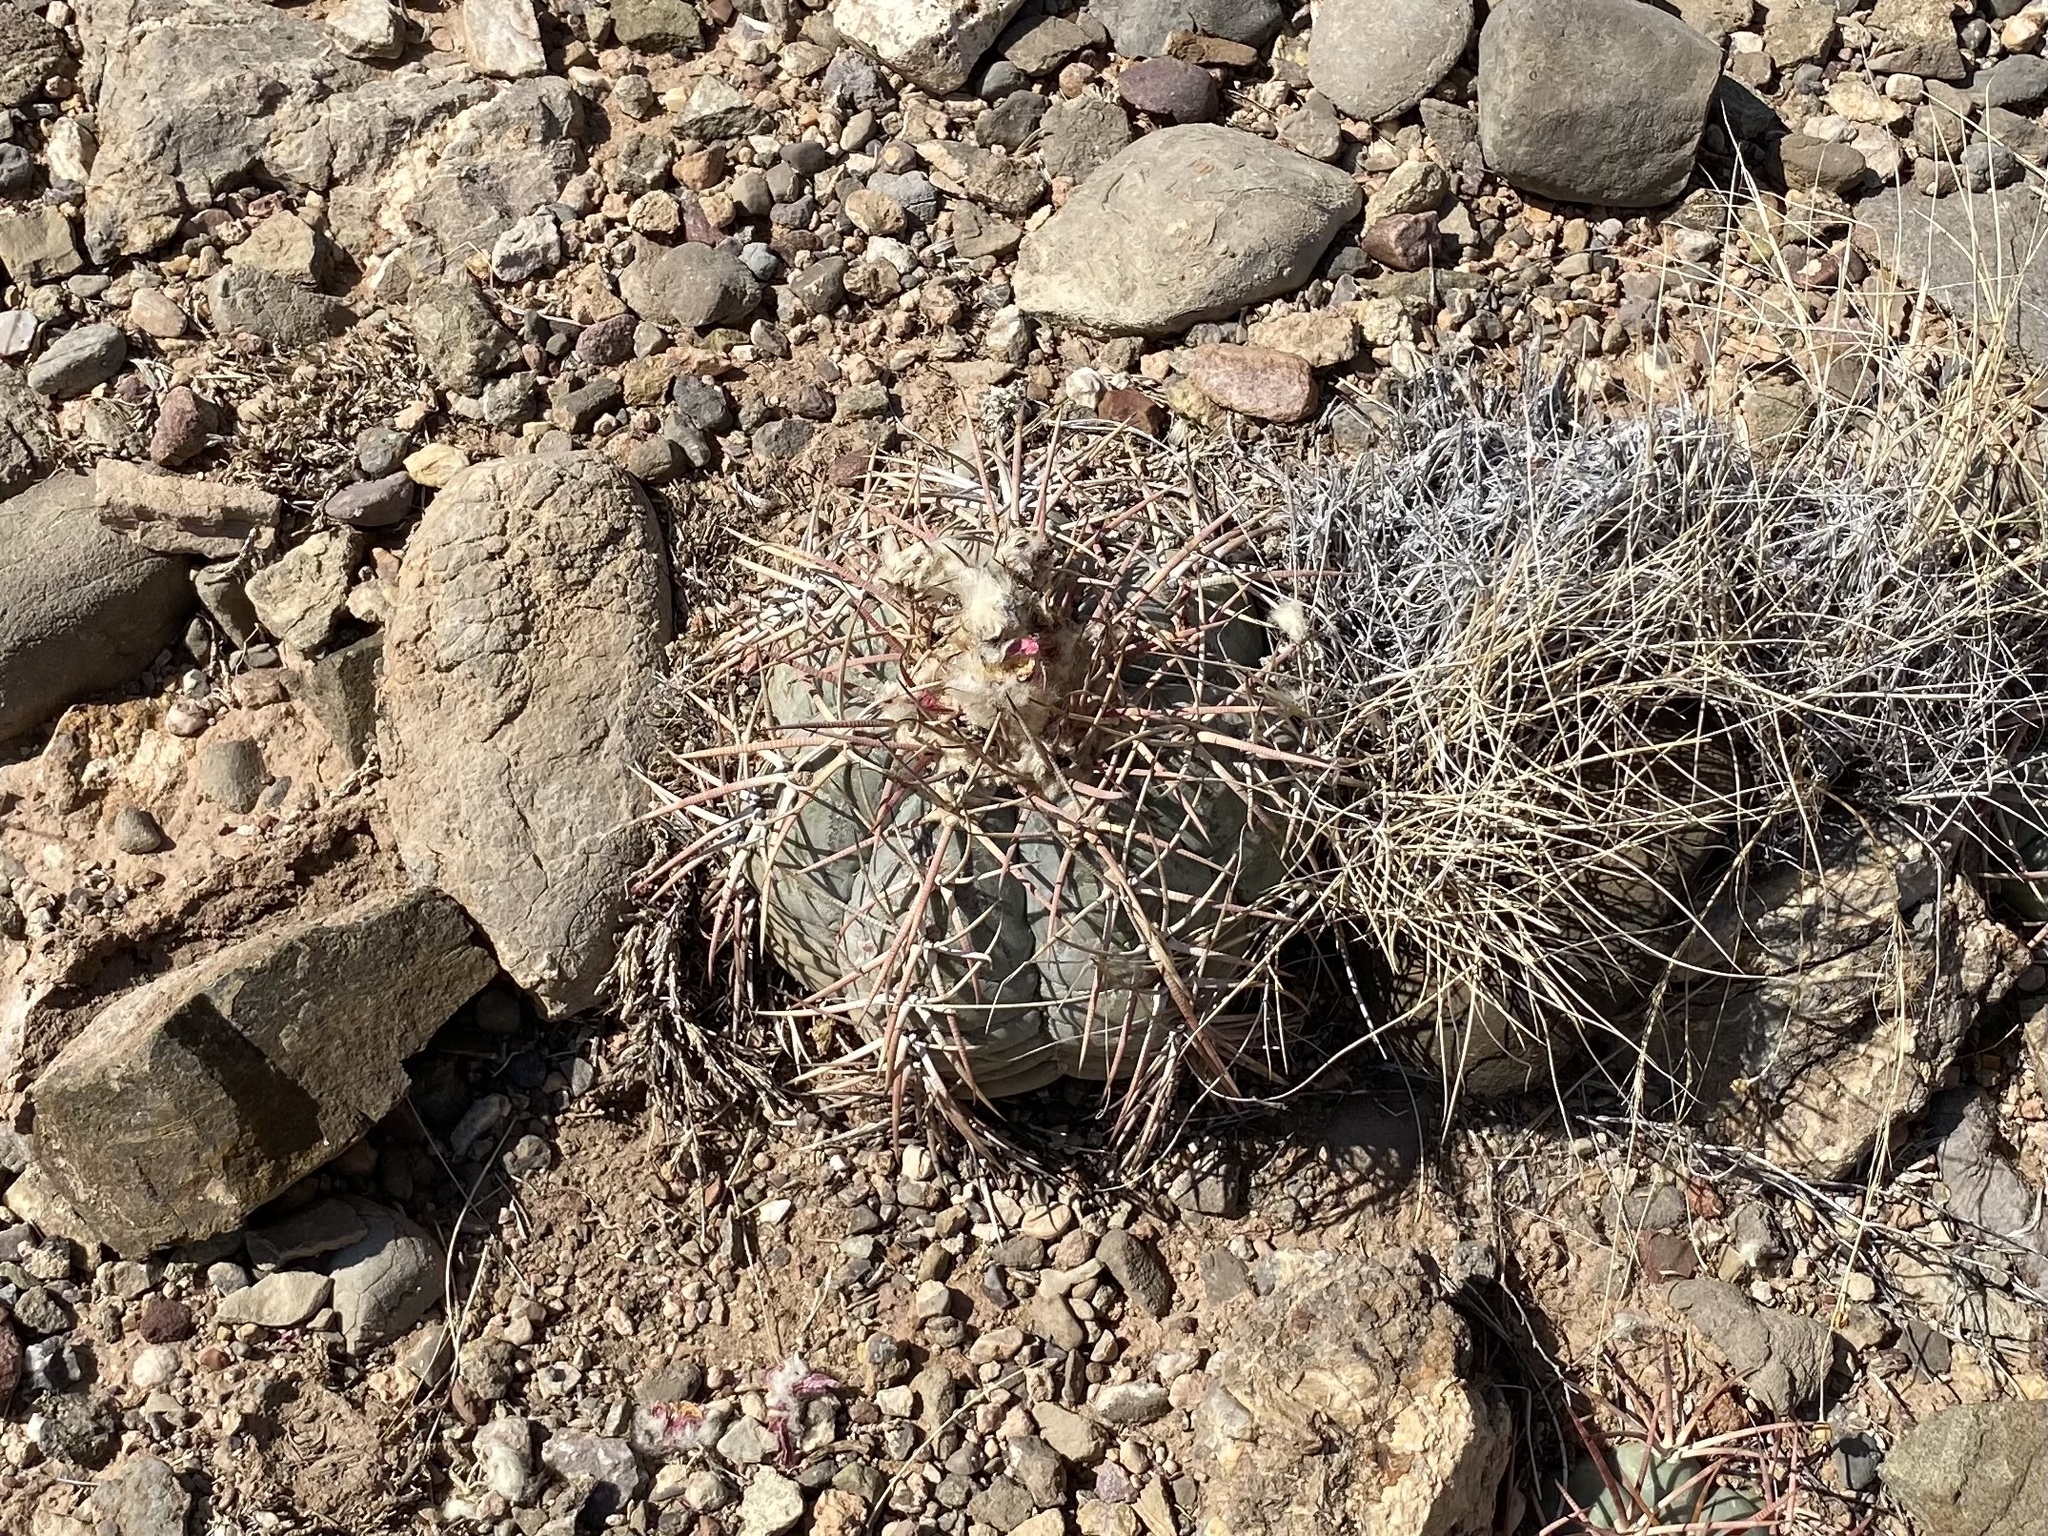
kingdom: Plantae
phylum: Tracheophyta
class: Magnoliopsida
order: Caryophyllales
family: Cactaceae
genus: Echinocactus
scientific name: Echinocactus horizonthalonius
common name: Devilshead
